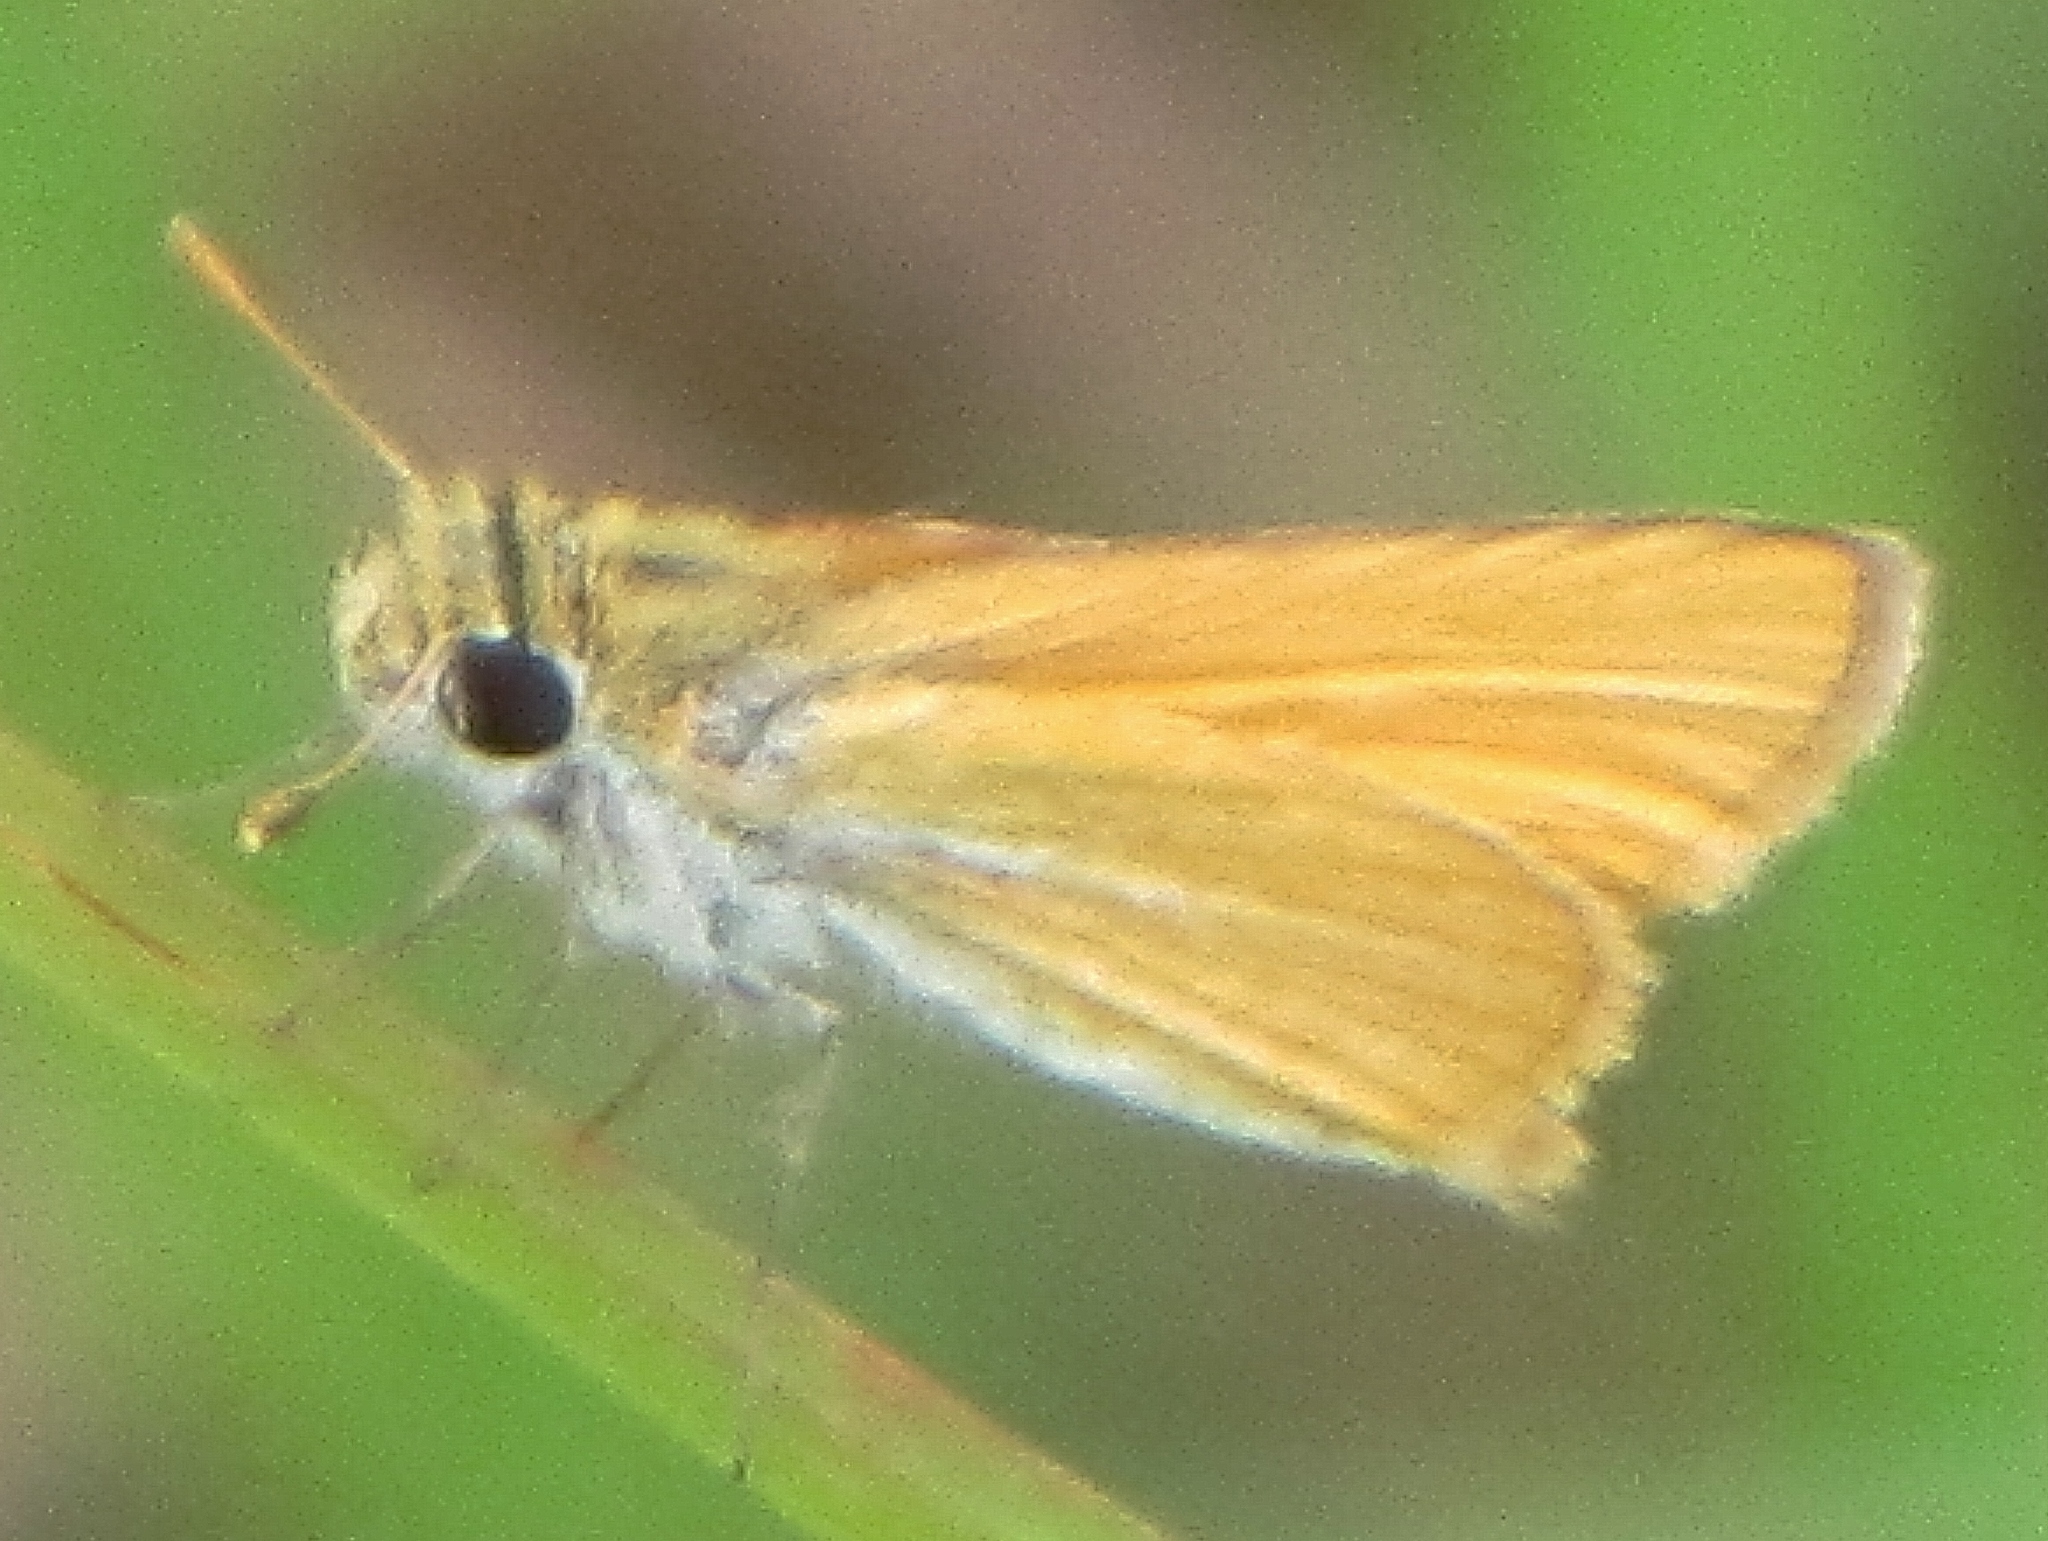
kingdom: Animalia
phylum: Arthropoda
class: Insecta
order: Lepidoptera
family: Hesperiidae
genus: Copaeodes
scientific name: Copaeodes minima
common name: Southern skipperling
